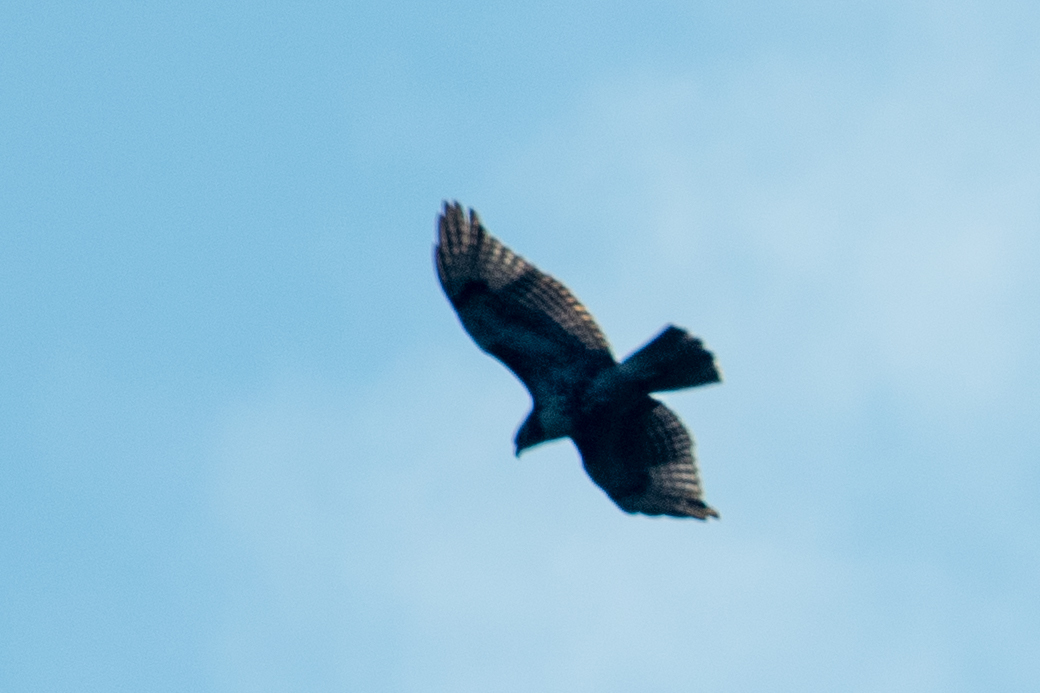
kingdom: Animalia
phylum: Chordata
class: Aves
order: Accipitriformes
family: Accipitridae
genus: Buteo
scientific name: Buteo jamaicensis
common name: Red-tailed hawk
